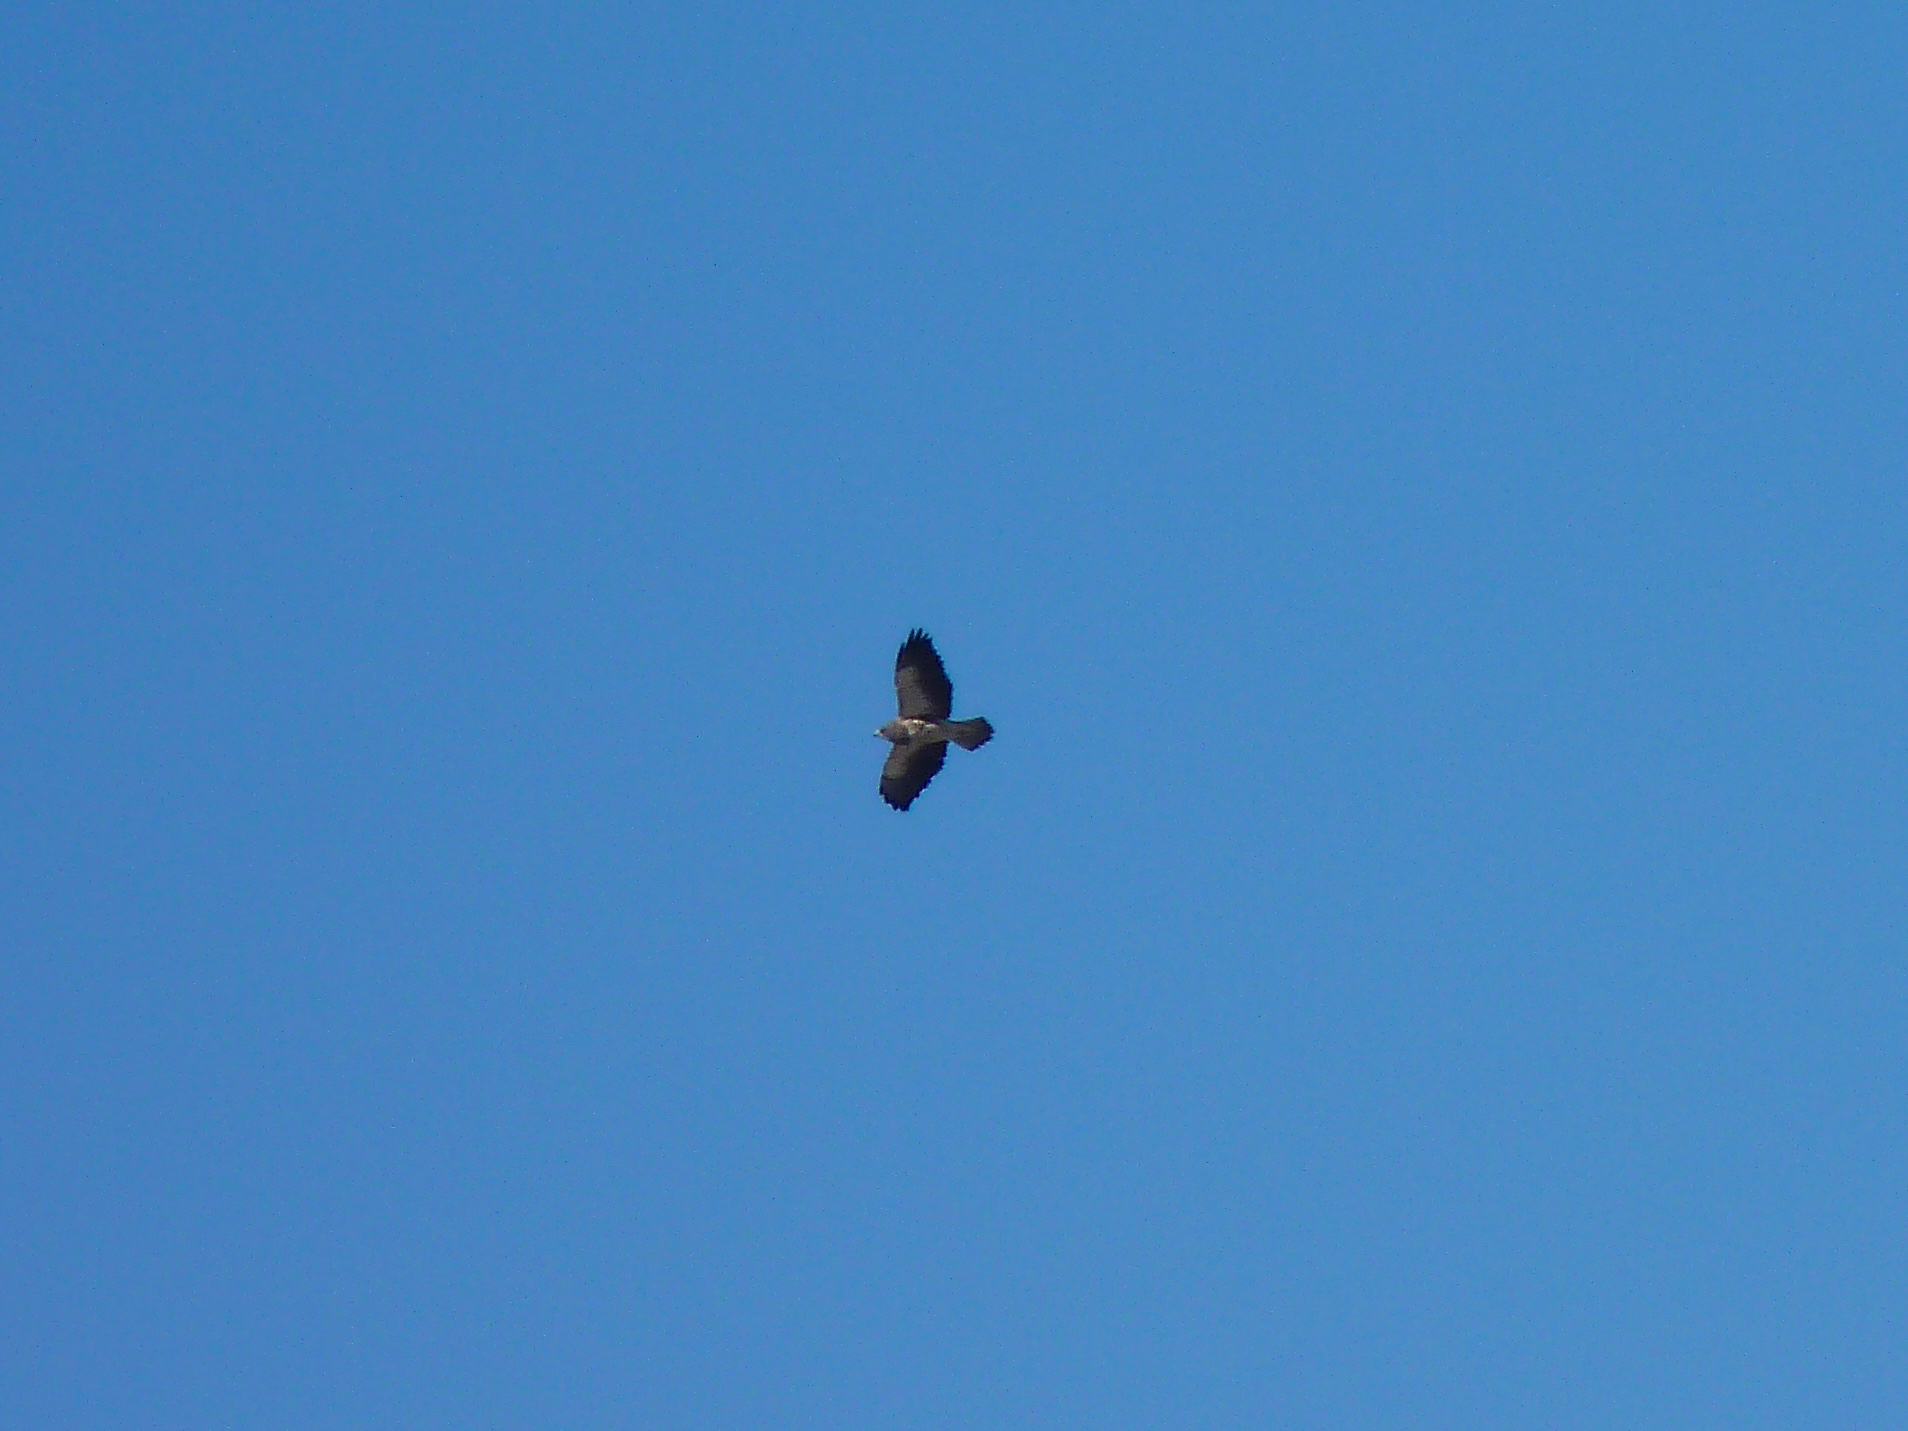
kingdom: Animalia
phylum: Chordata
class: Aves
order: Accipitriformes
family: Accipitridae
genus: Buteo
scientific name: Buteo swainsoni
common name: Swainson's hawk
